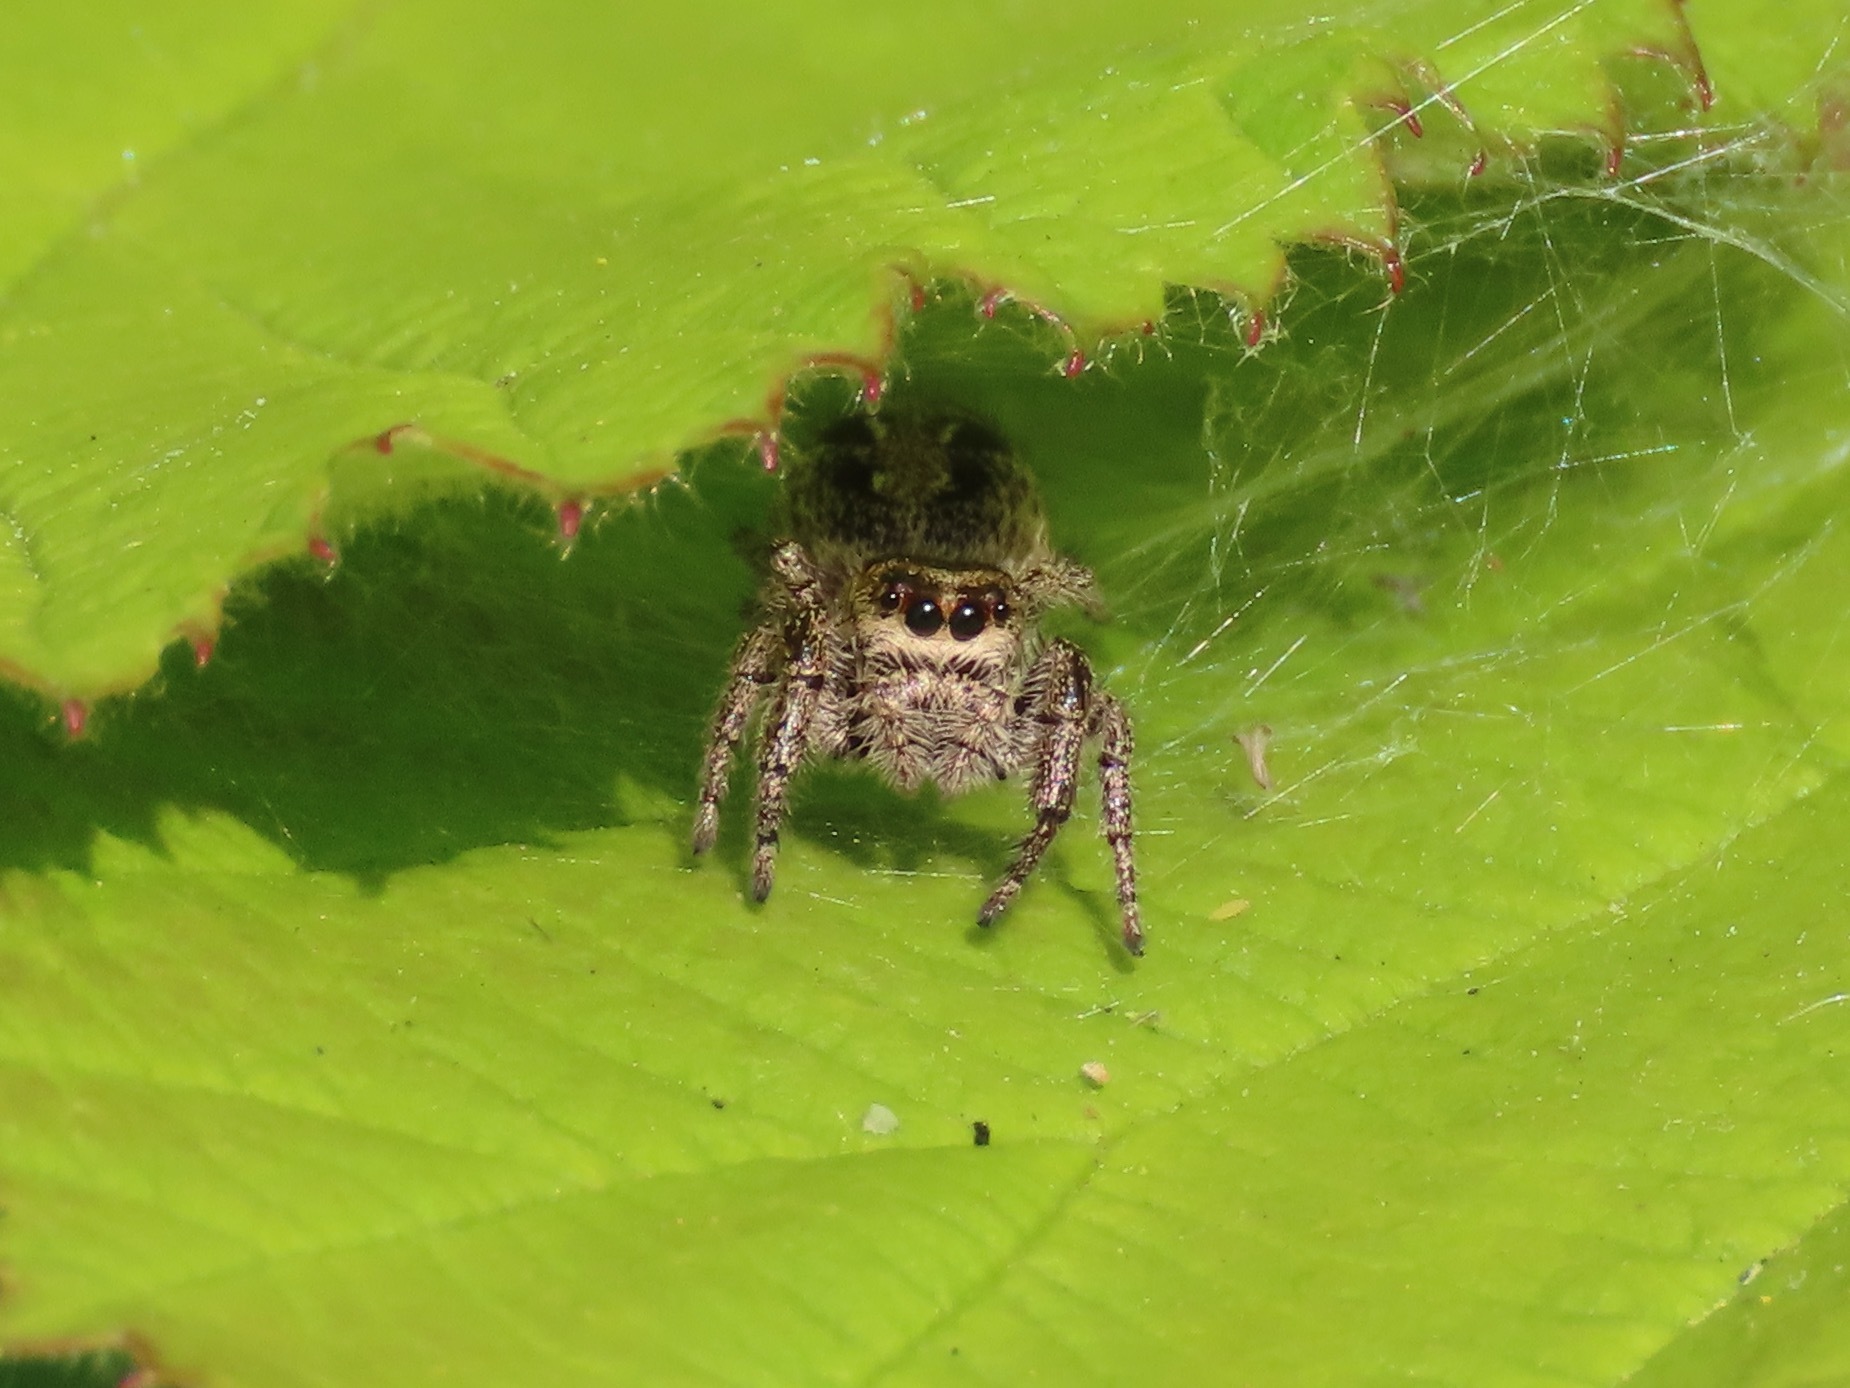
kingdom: Animalia
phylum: Arthropoda
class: Arachnida
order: Araneae
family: Salticidae
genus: Eris
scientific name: Eris militaris
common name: Bronze jumper
